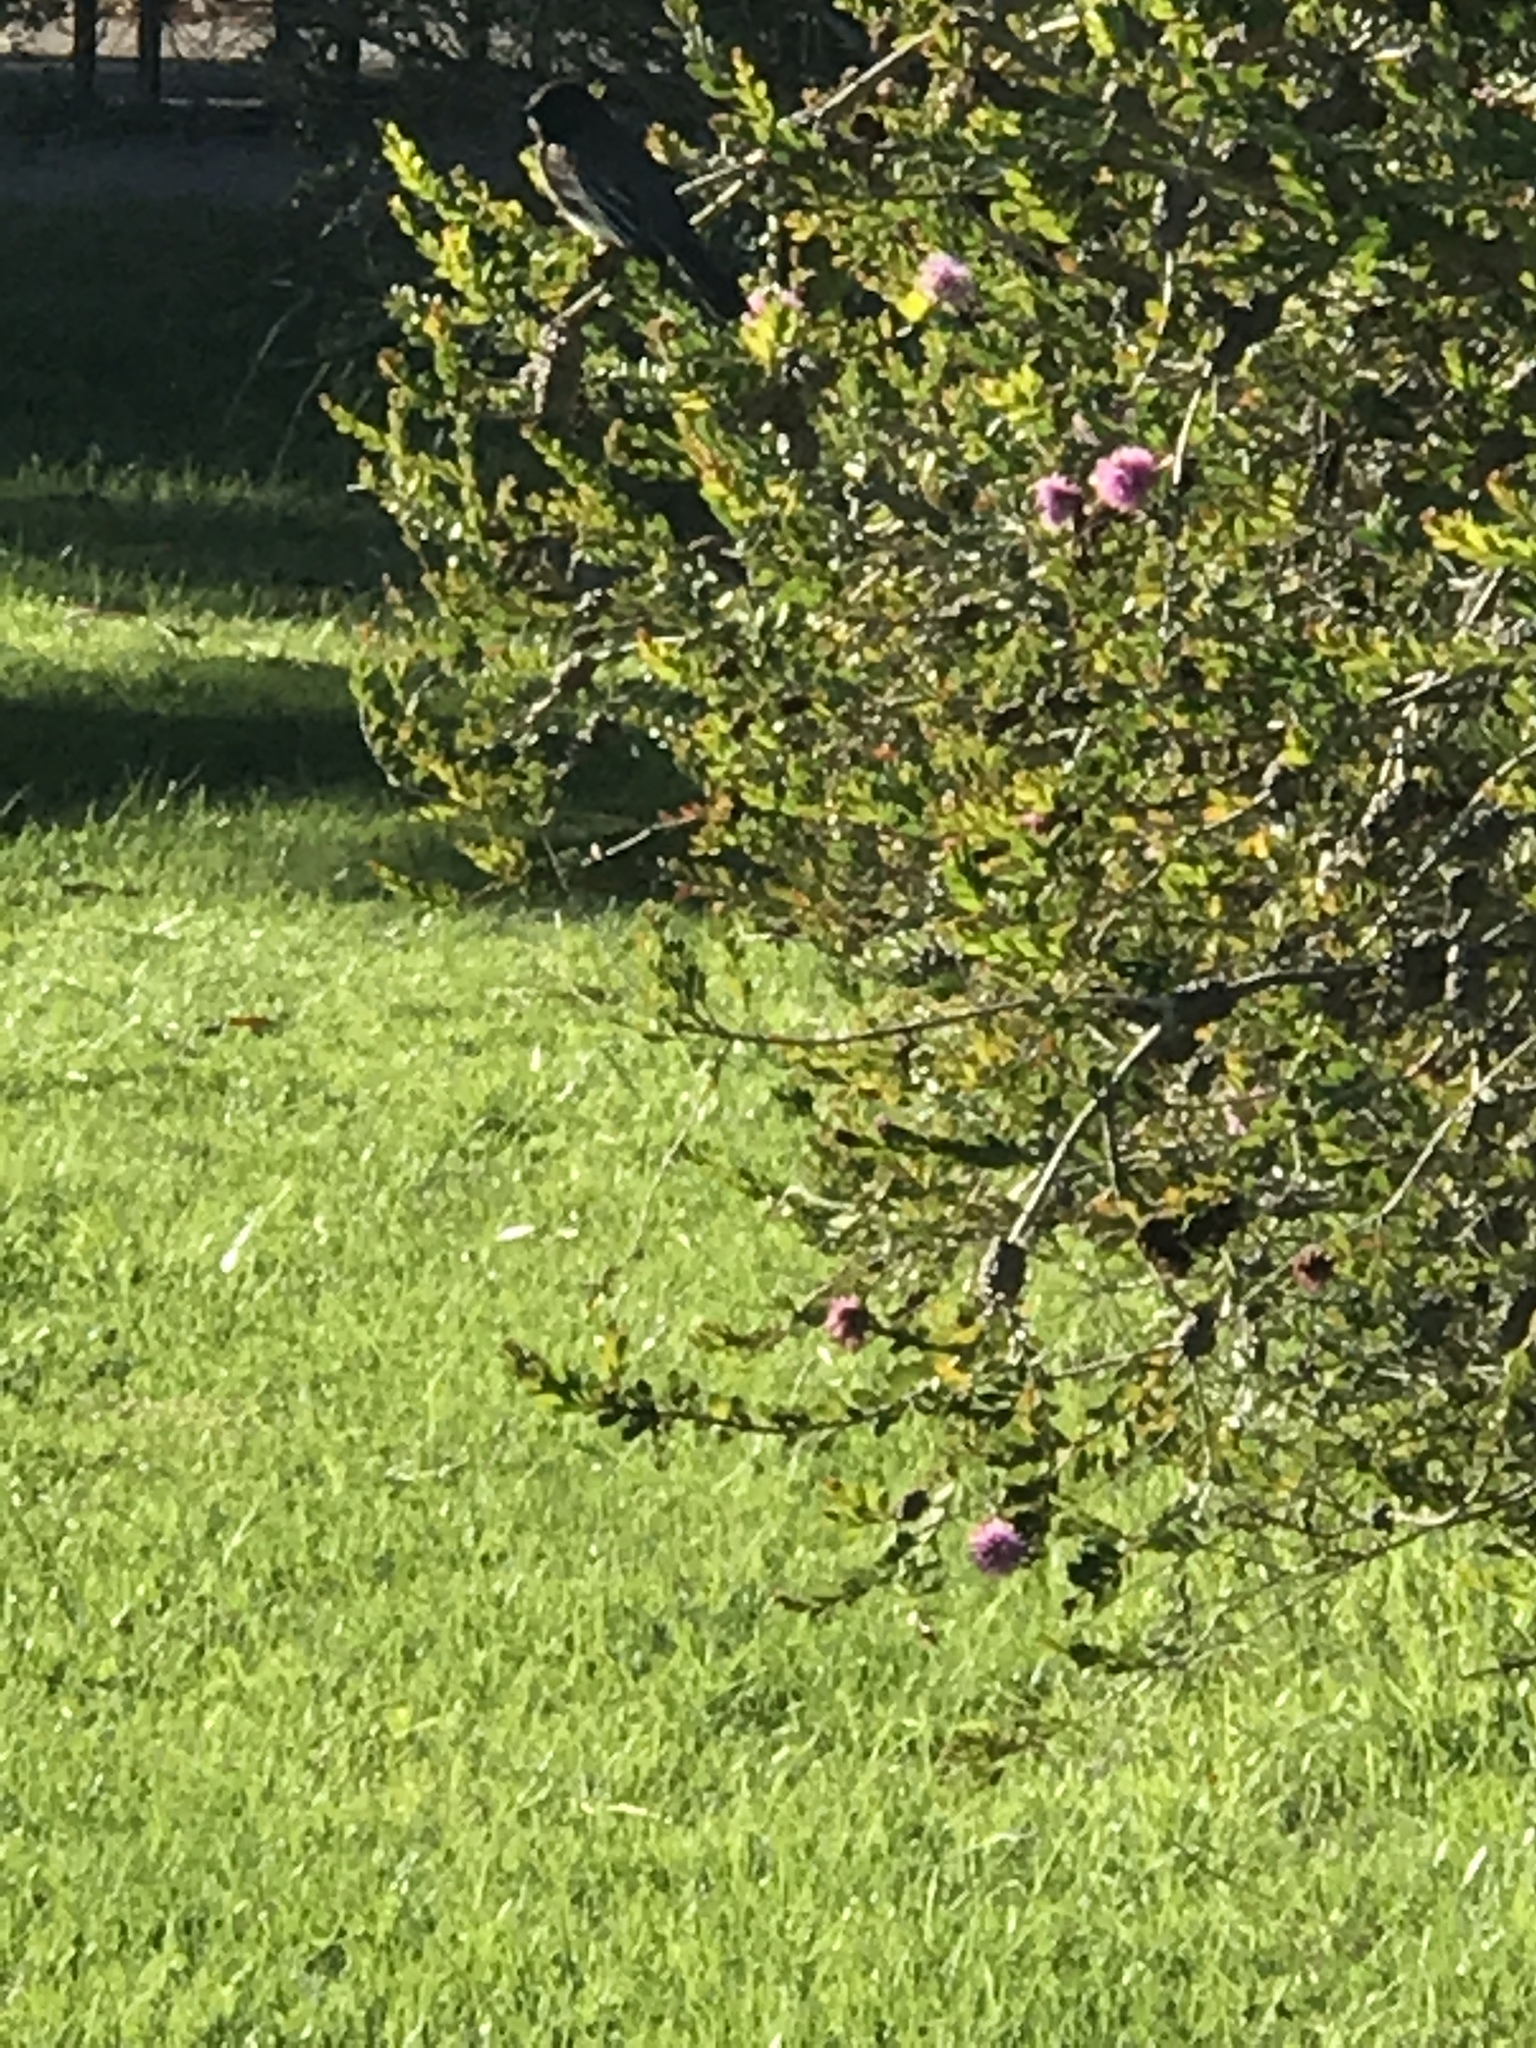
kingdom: Animalia
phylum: Chordata
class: Aves
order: Passeriformes
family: Tyrannidae
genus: Sayornis
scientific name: Sayornis nigricans
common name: Black phoebe
